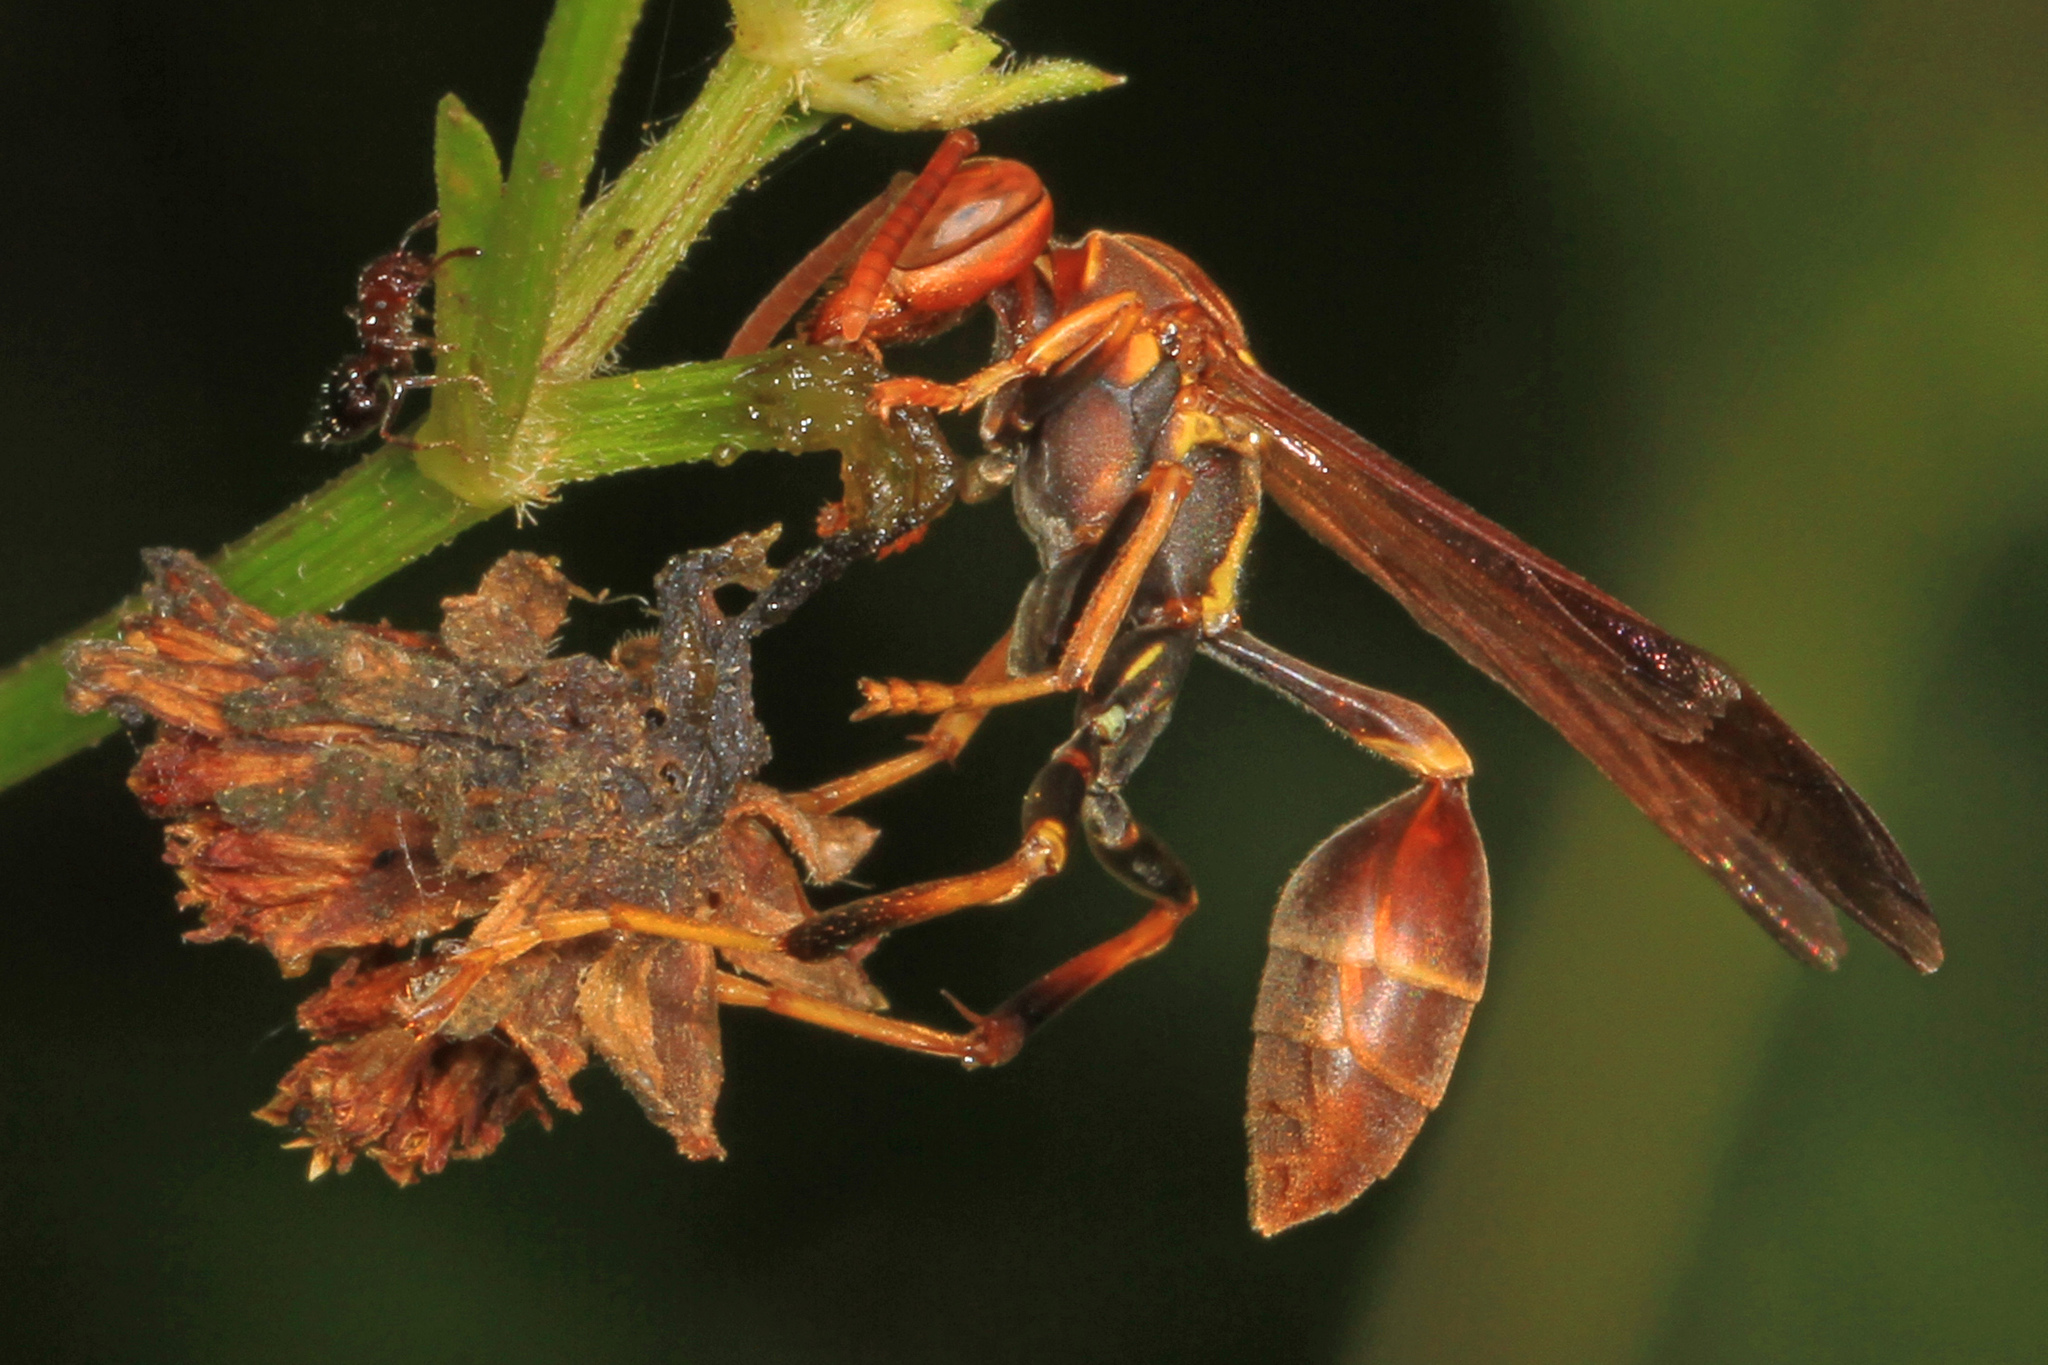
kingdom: Animalia
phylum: Arthropoda
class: Insecta
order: Hymenoptera
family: Vespidae
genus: Mischocyttarus
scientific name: Mischocyttarus mexicanus
